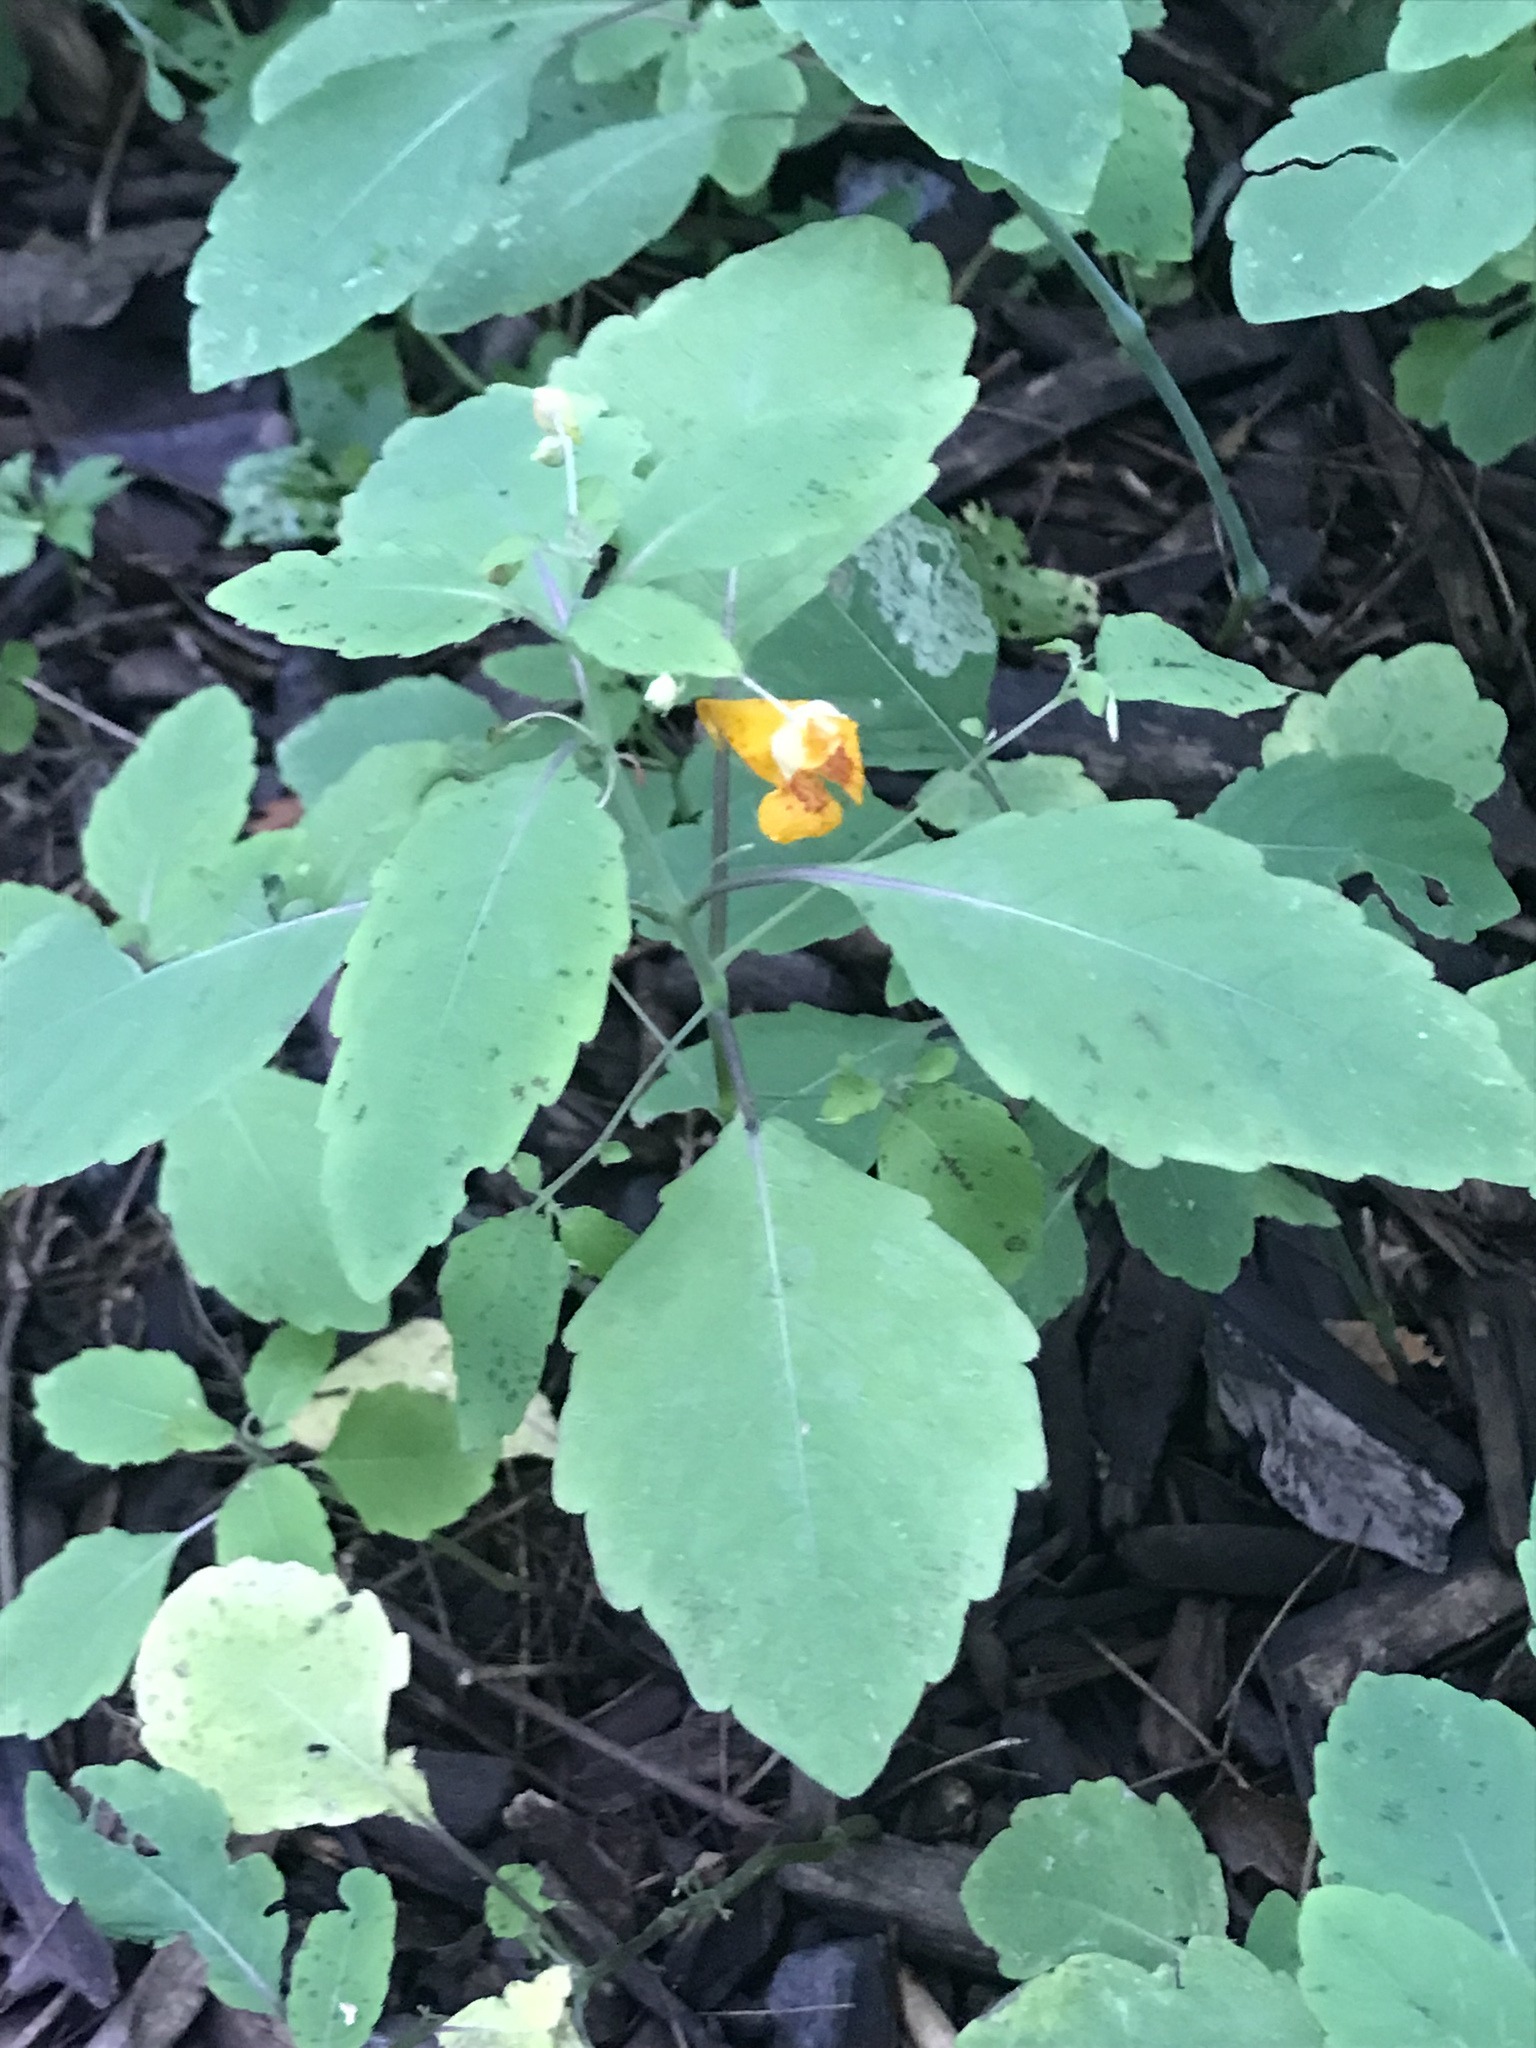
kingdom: Plantae
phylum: Tracheophyta
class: Magnoliopsida
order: Ericales
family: Balsaminaceae
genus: Impatiens
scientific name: Impatiens capensis
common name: Orange balsam
